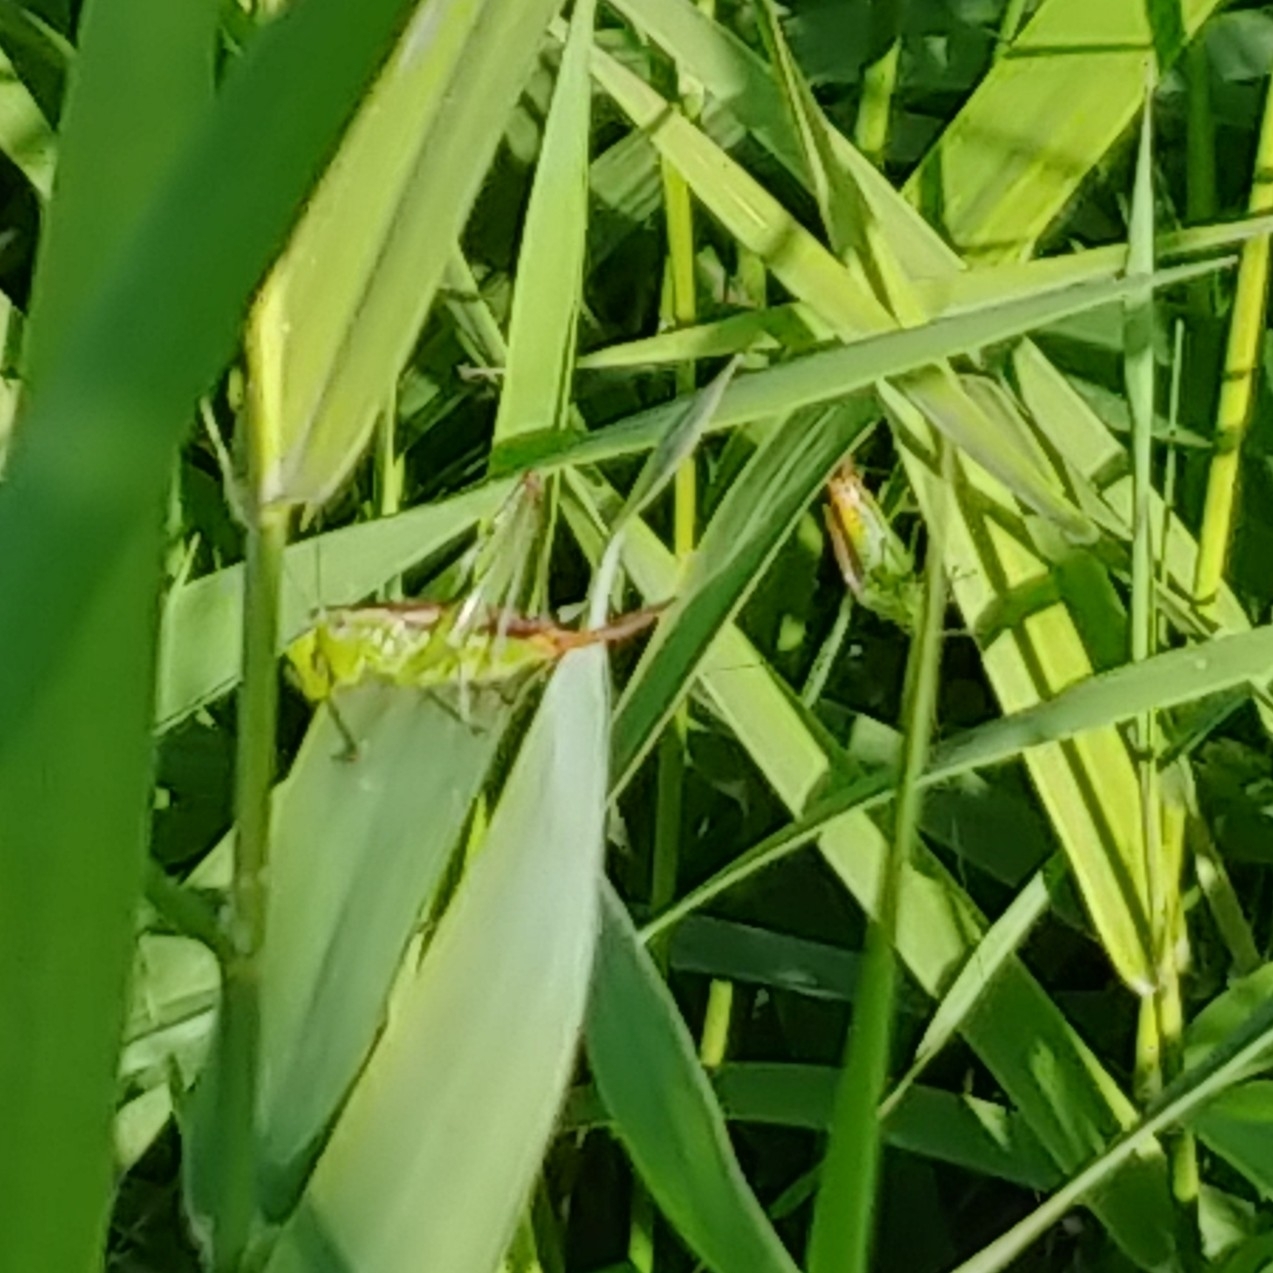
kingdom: Animalia
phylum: Arthropoda
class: Insecta
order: Orthoptera
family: Tettigoniidae
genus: Conocephalus
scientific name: Conocephalus brevipennis
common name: Short-winged meadow katydid
